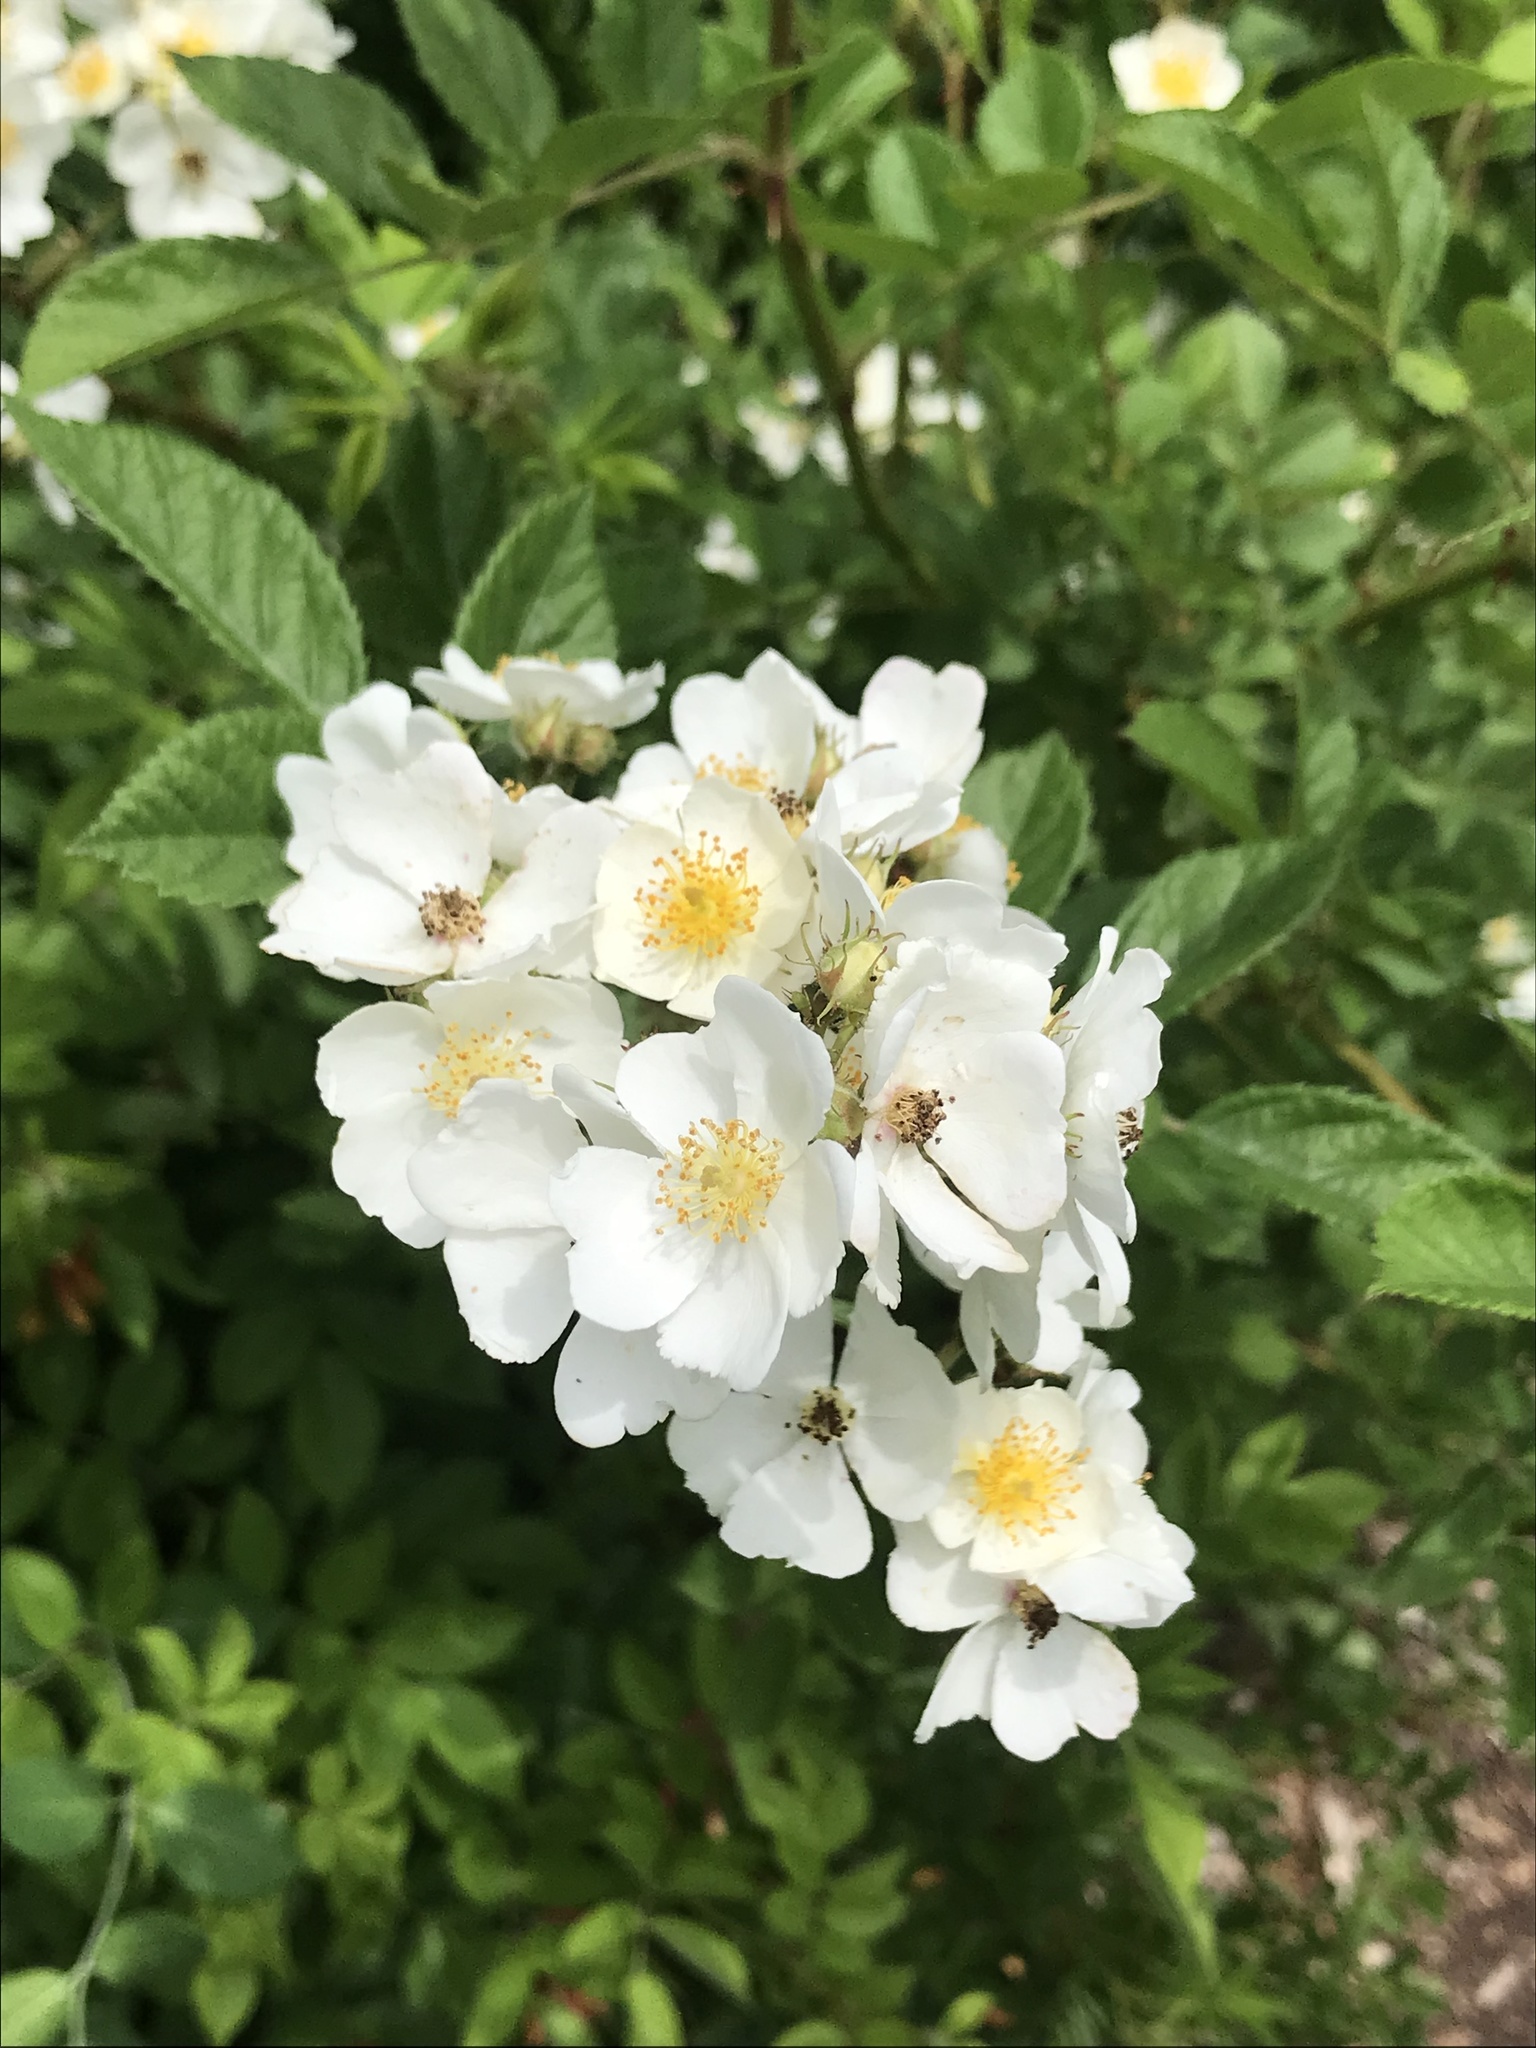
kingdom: Plantae
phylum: Tracheophyta
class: Magnoliopsida
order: Rosales
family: Rosaceae
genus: Rosa
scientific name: Rosa multiflora
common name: Multiflora rose
